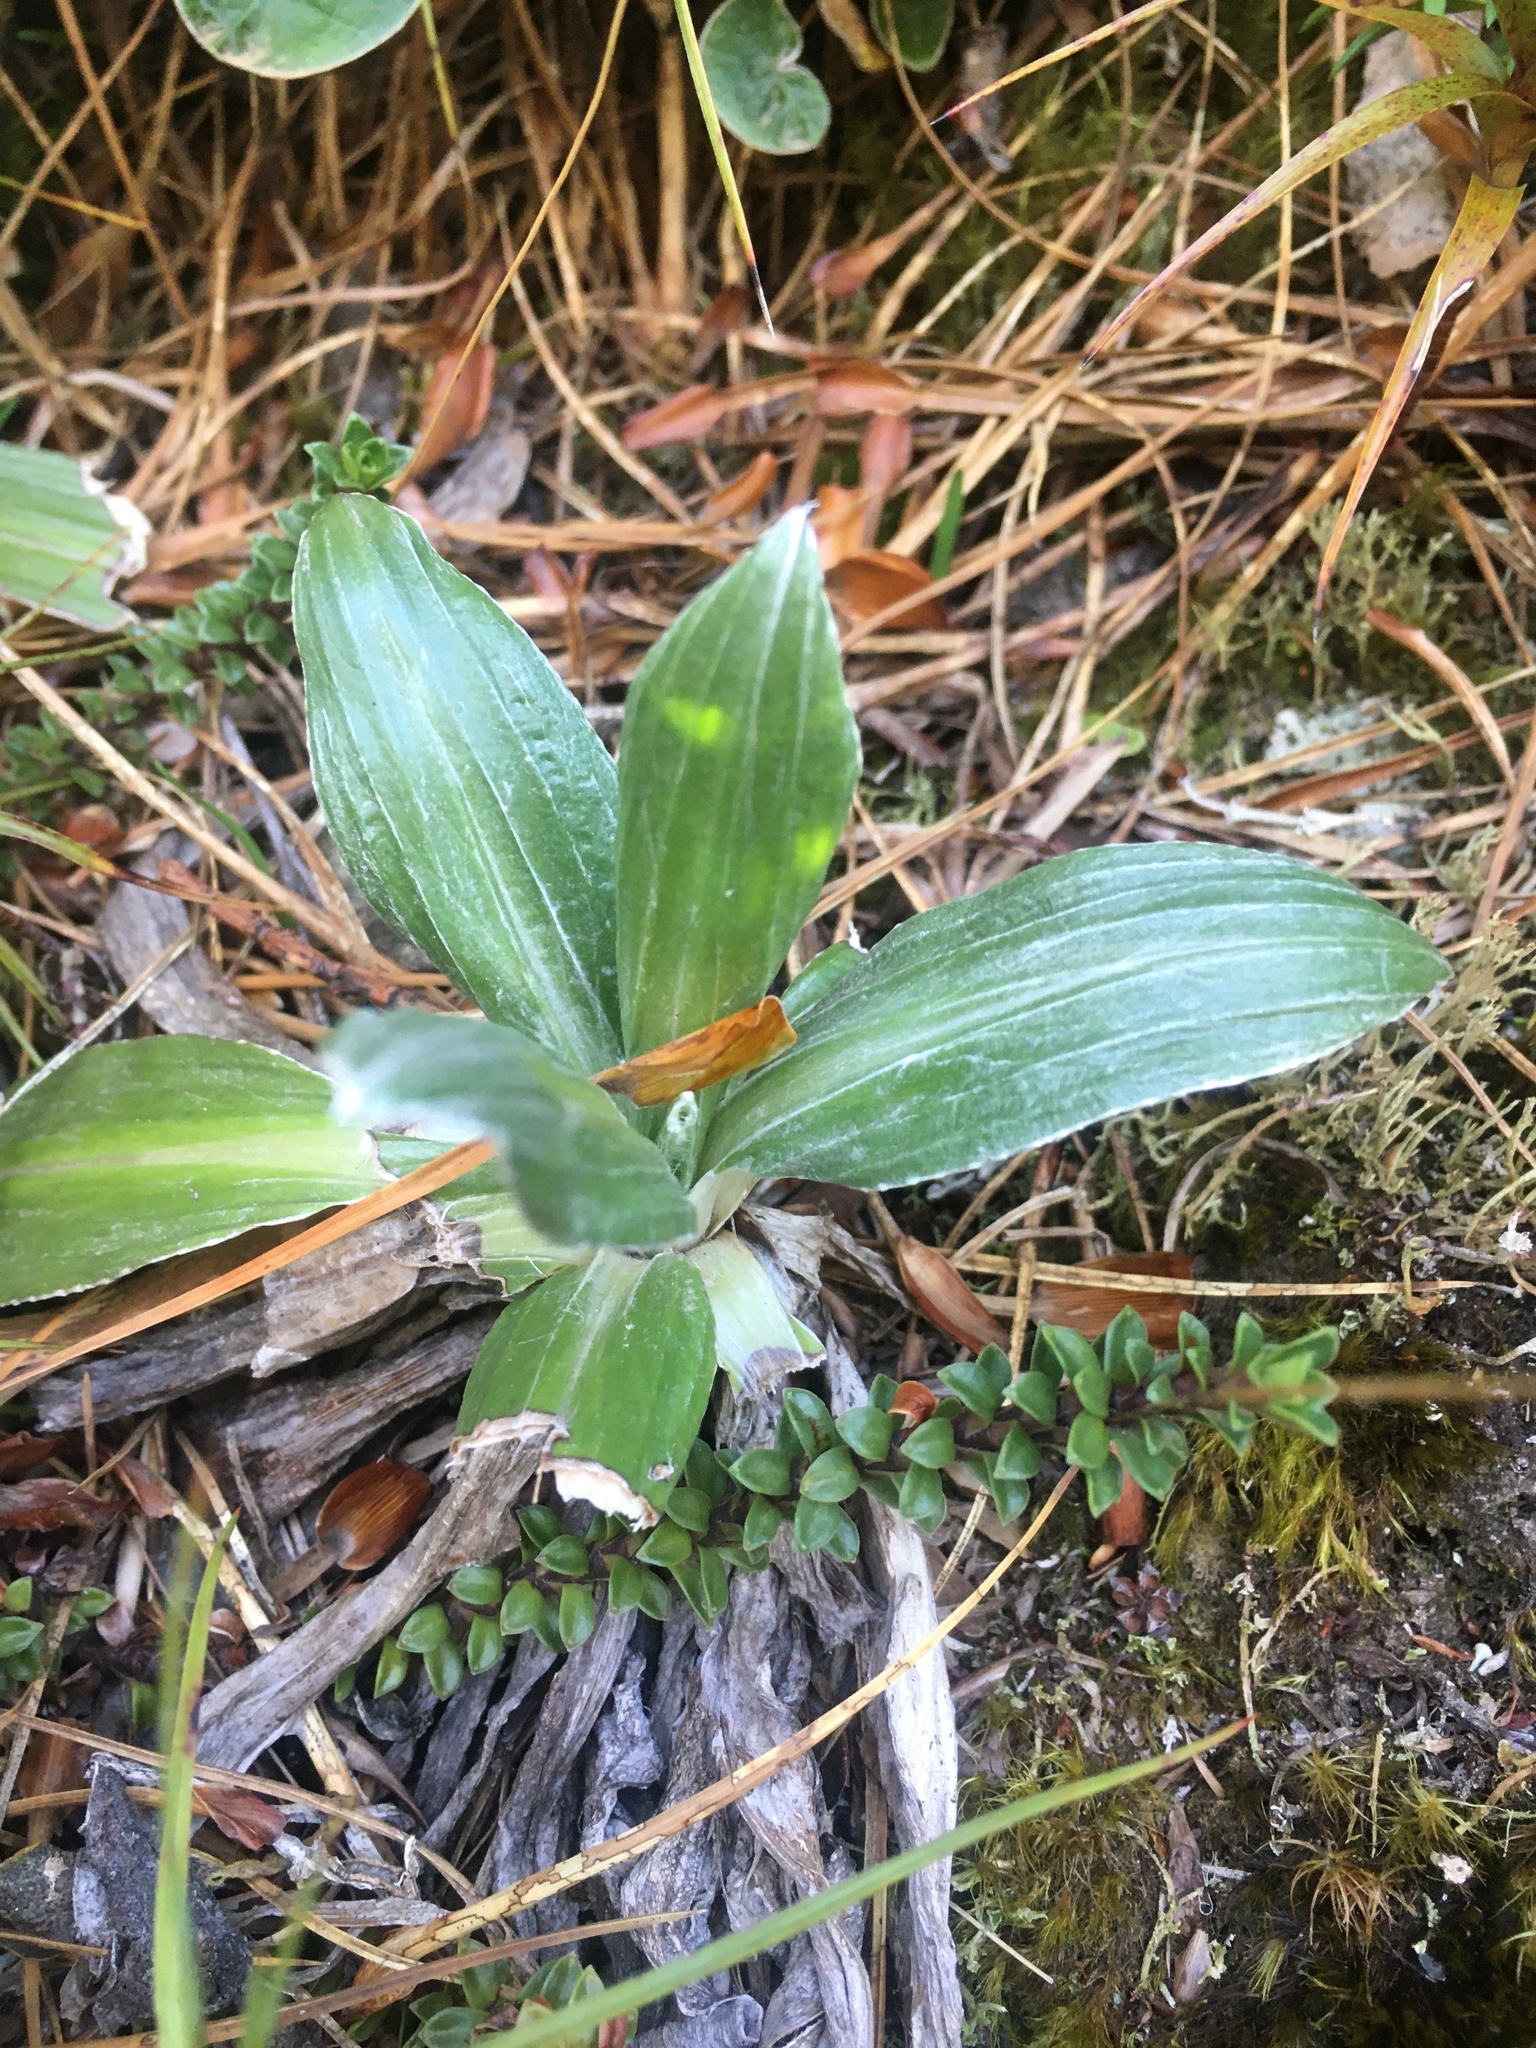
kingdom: Plantae
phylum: Tracheophyta
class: Magnoliopsida
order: Asterales
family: Asteraceae
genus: Celmisia
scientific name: Celmisia semicordata
